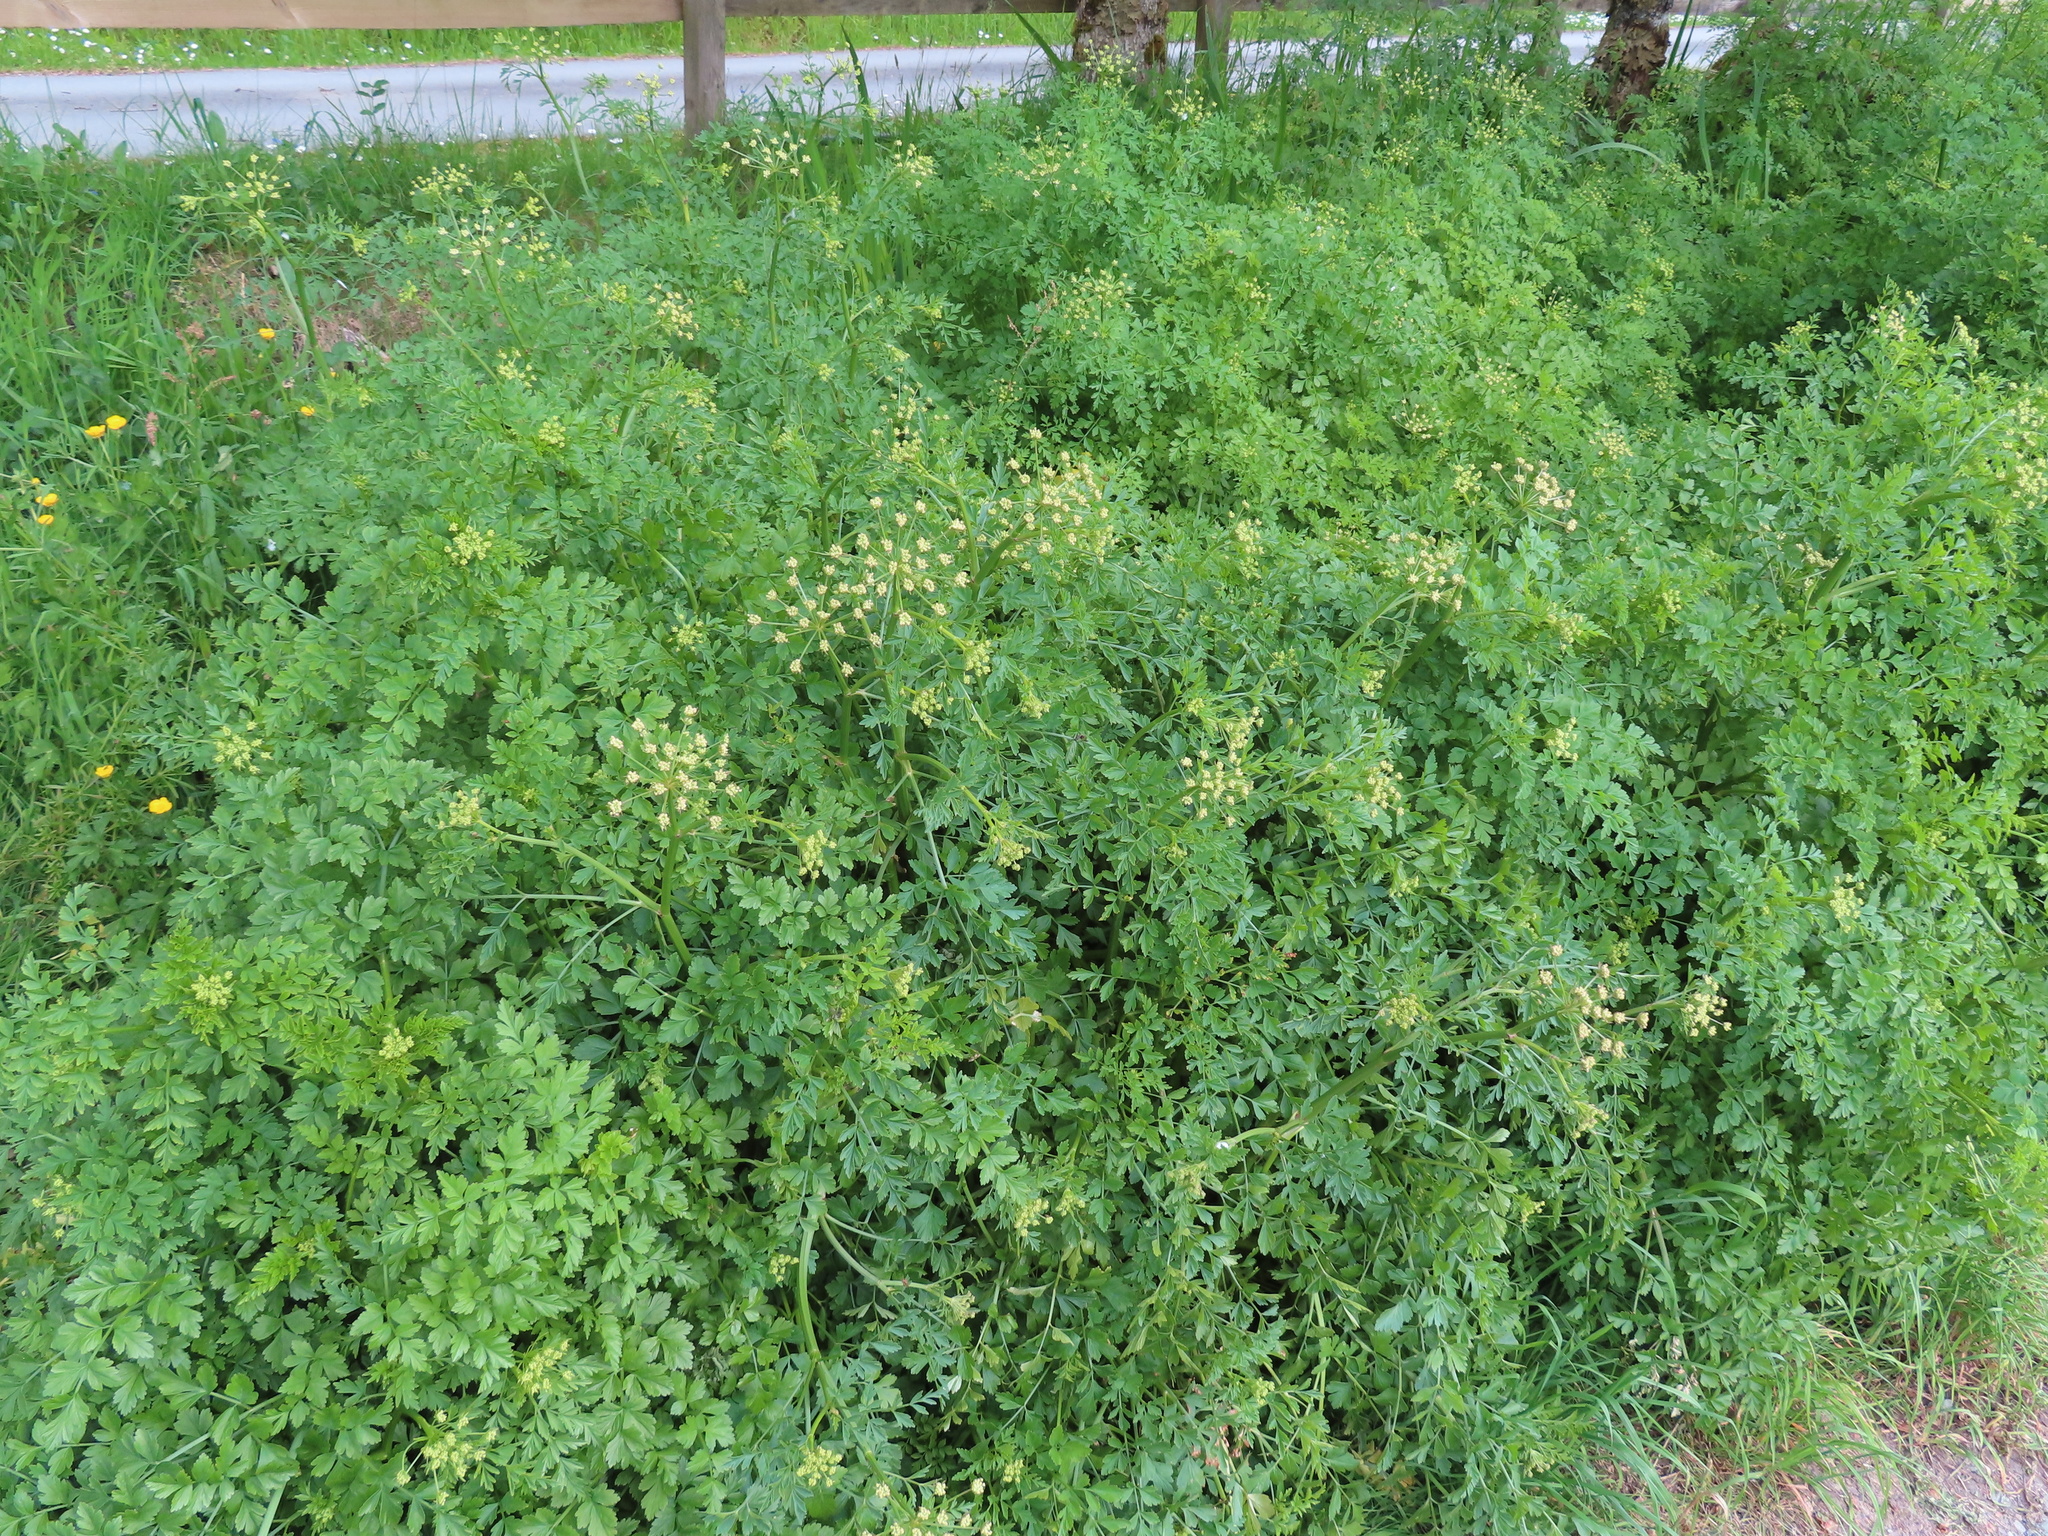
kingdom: Plantae
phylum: Tracheophyta
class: Magnoliopsida
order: Apiales
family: Apiaceae
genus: Oenanthe
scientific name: Oenanthe crocata
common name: Hemlock water-dropwort
